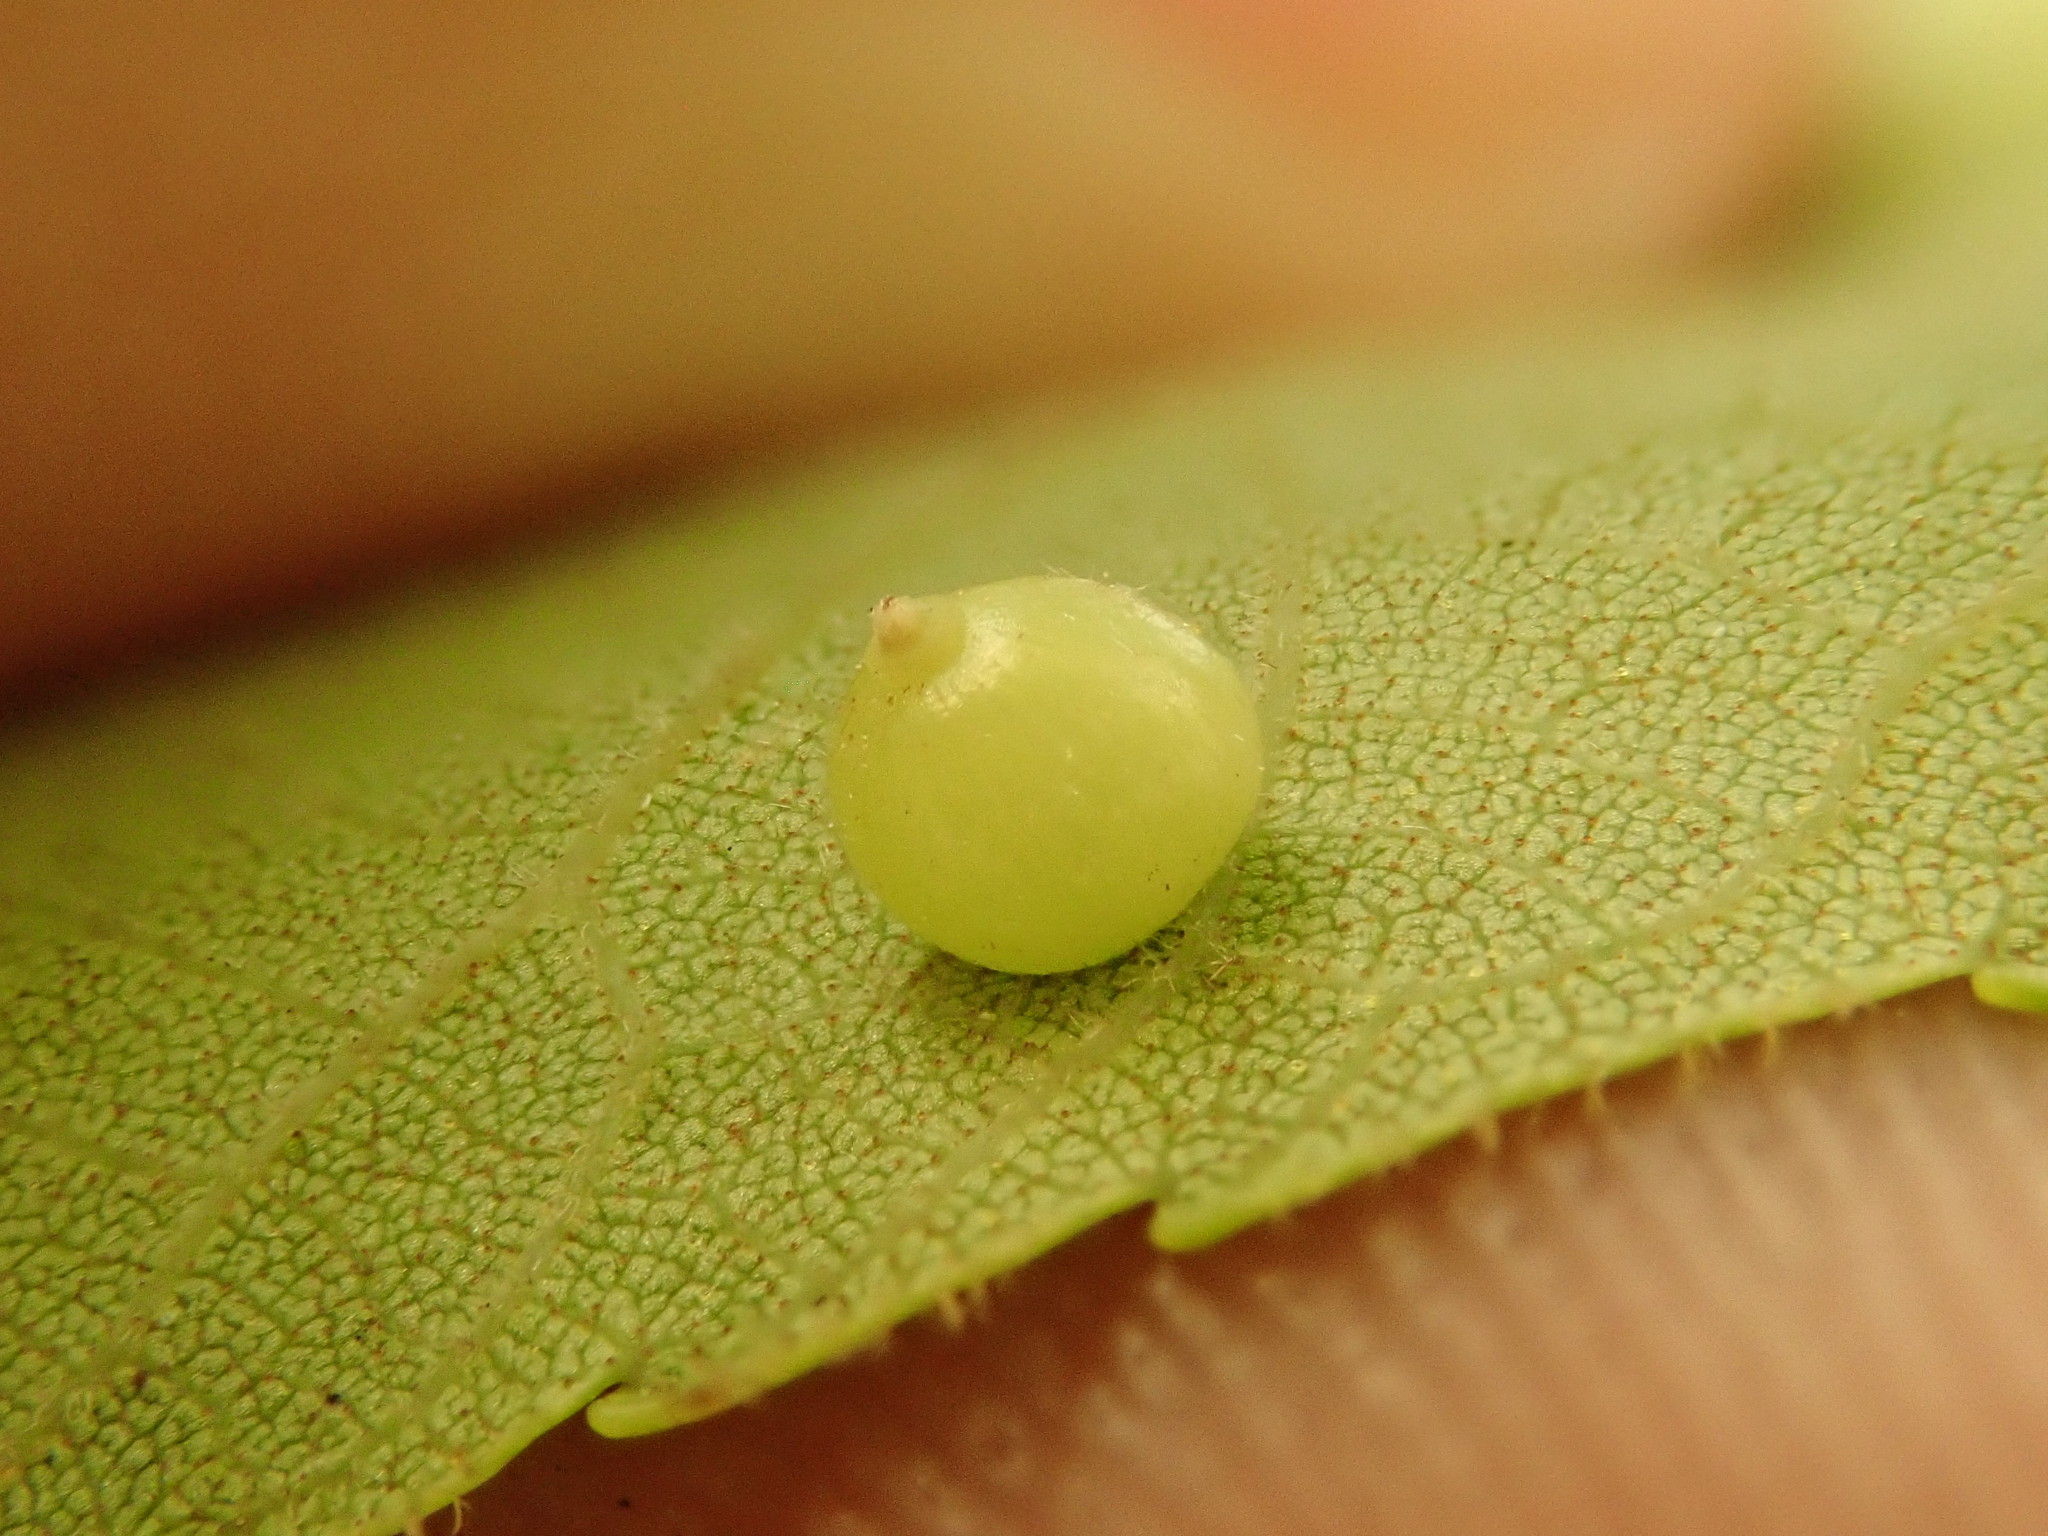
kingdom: Animalia
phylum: Arthropoda
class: Insecta
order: Diptera
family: Cecidomyiidae
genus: Caryomyia
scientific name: Caryomyia deflexipili
